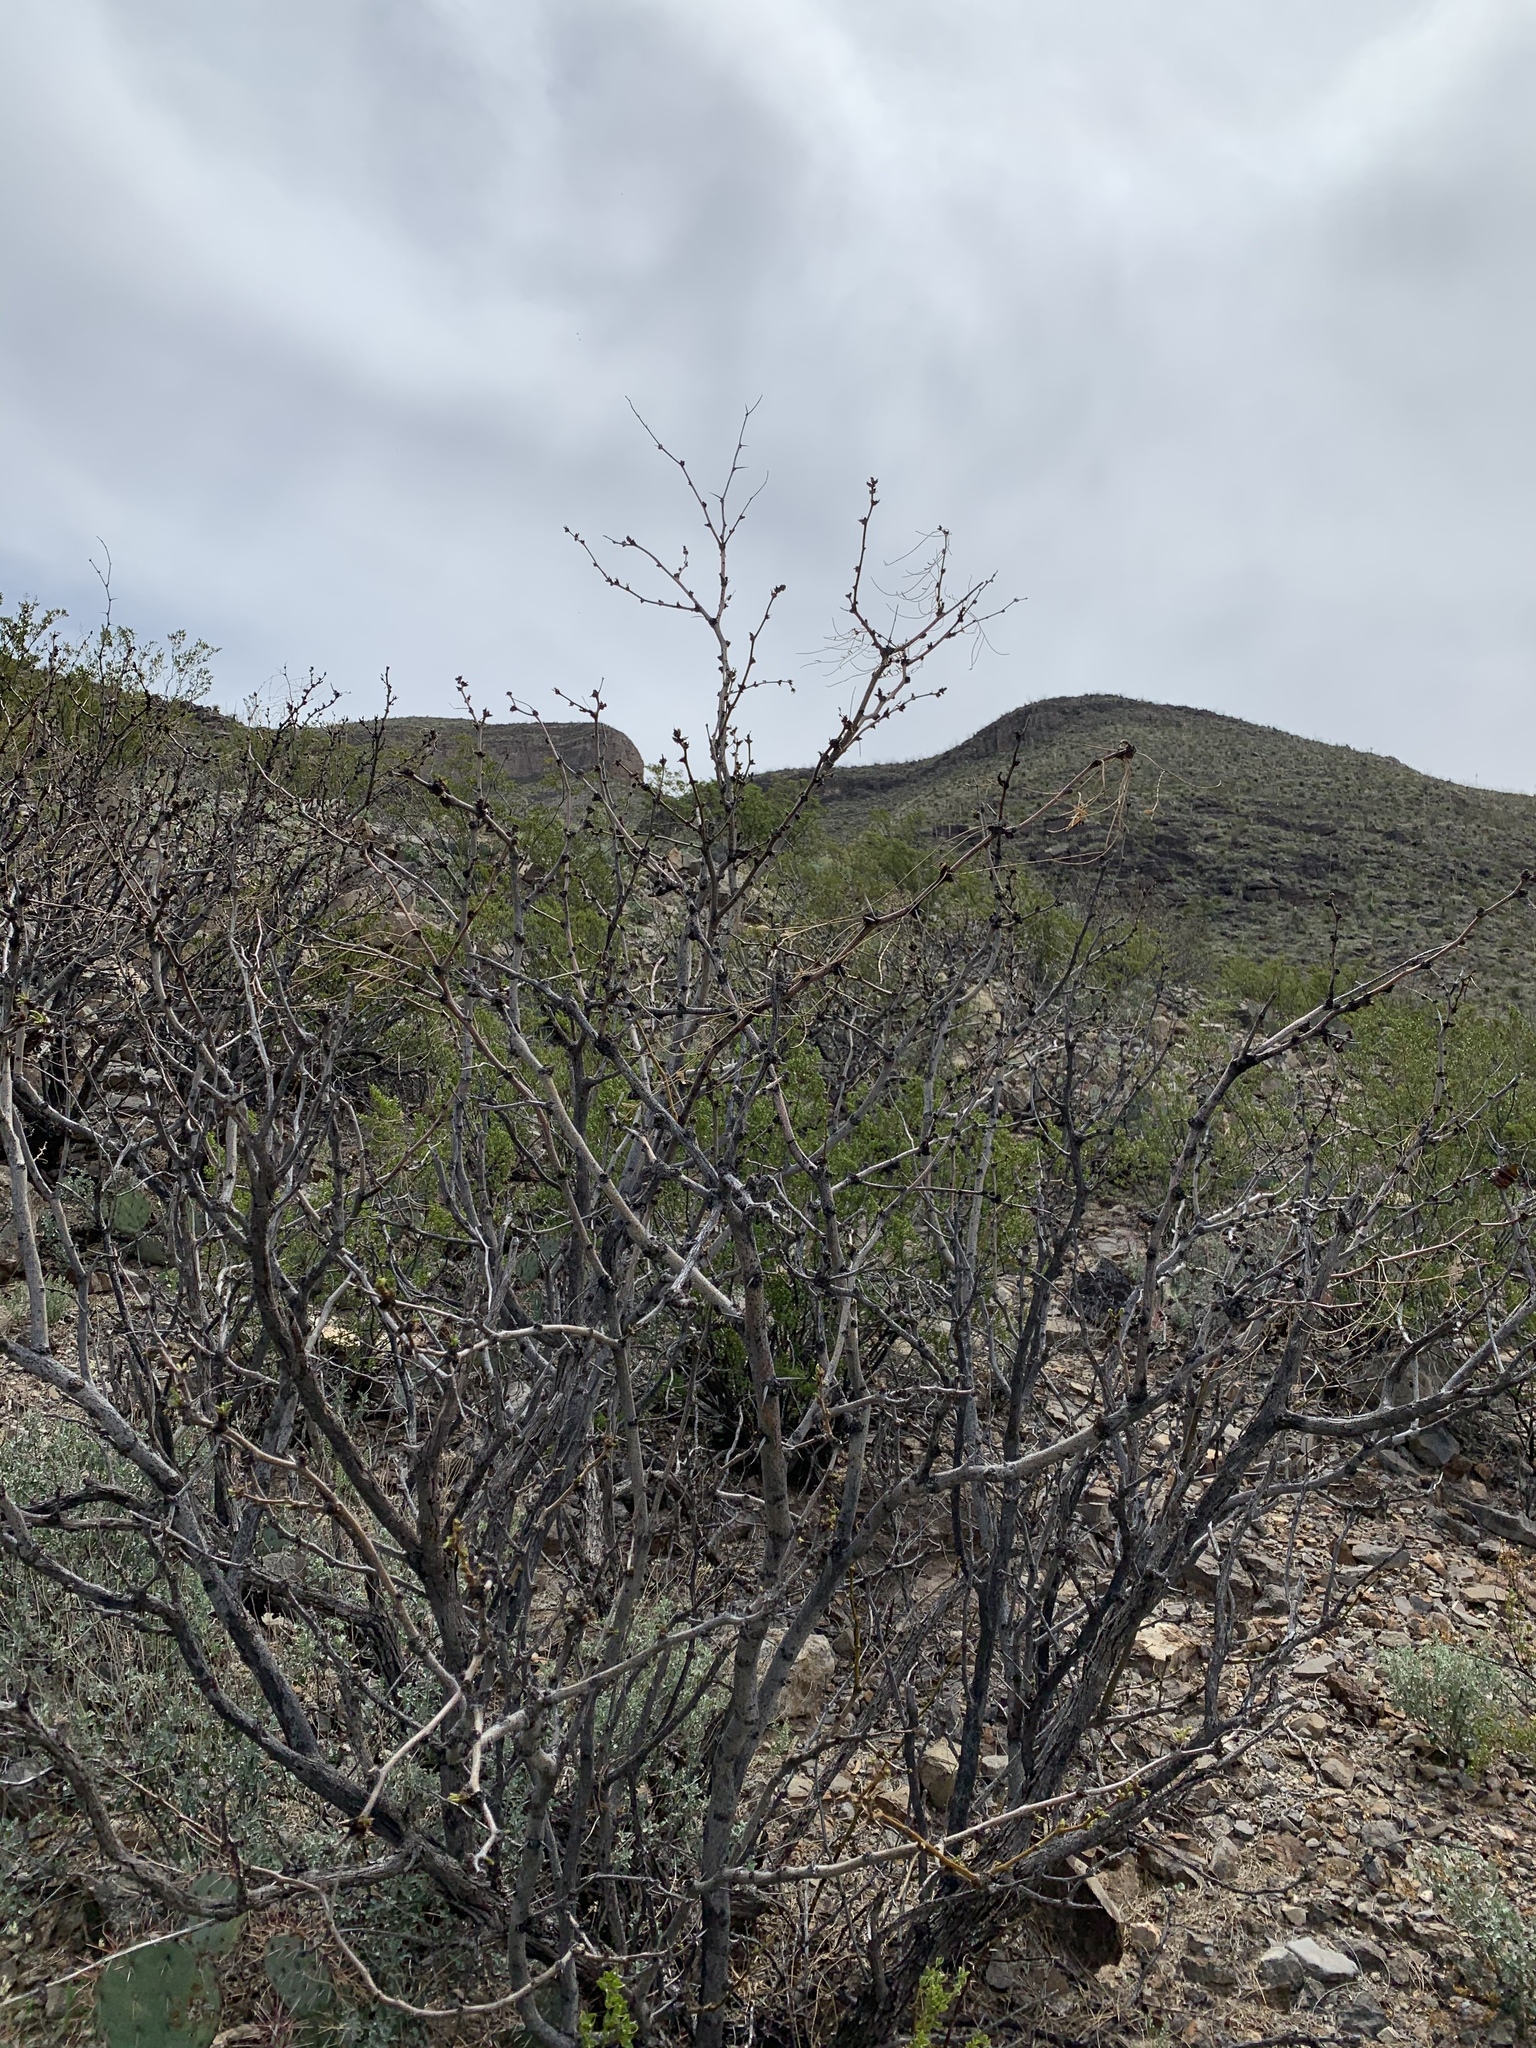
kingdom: Plantae
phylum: Tracheophyta
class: Magnoliopsida
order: Fabales
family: Fabaceae
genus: Prosopis
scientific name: Prosopis glandulosa
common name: Honey mesquite
